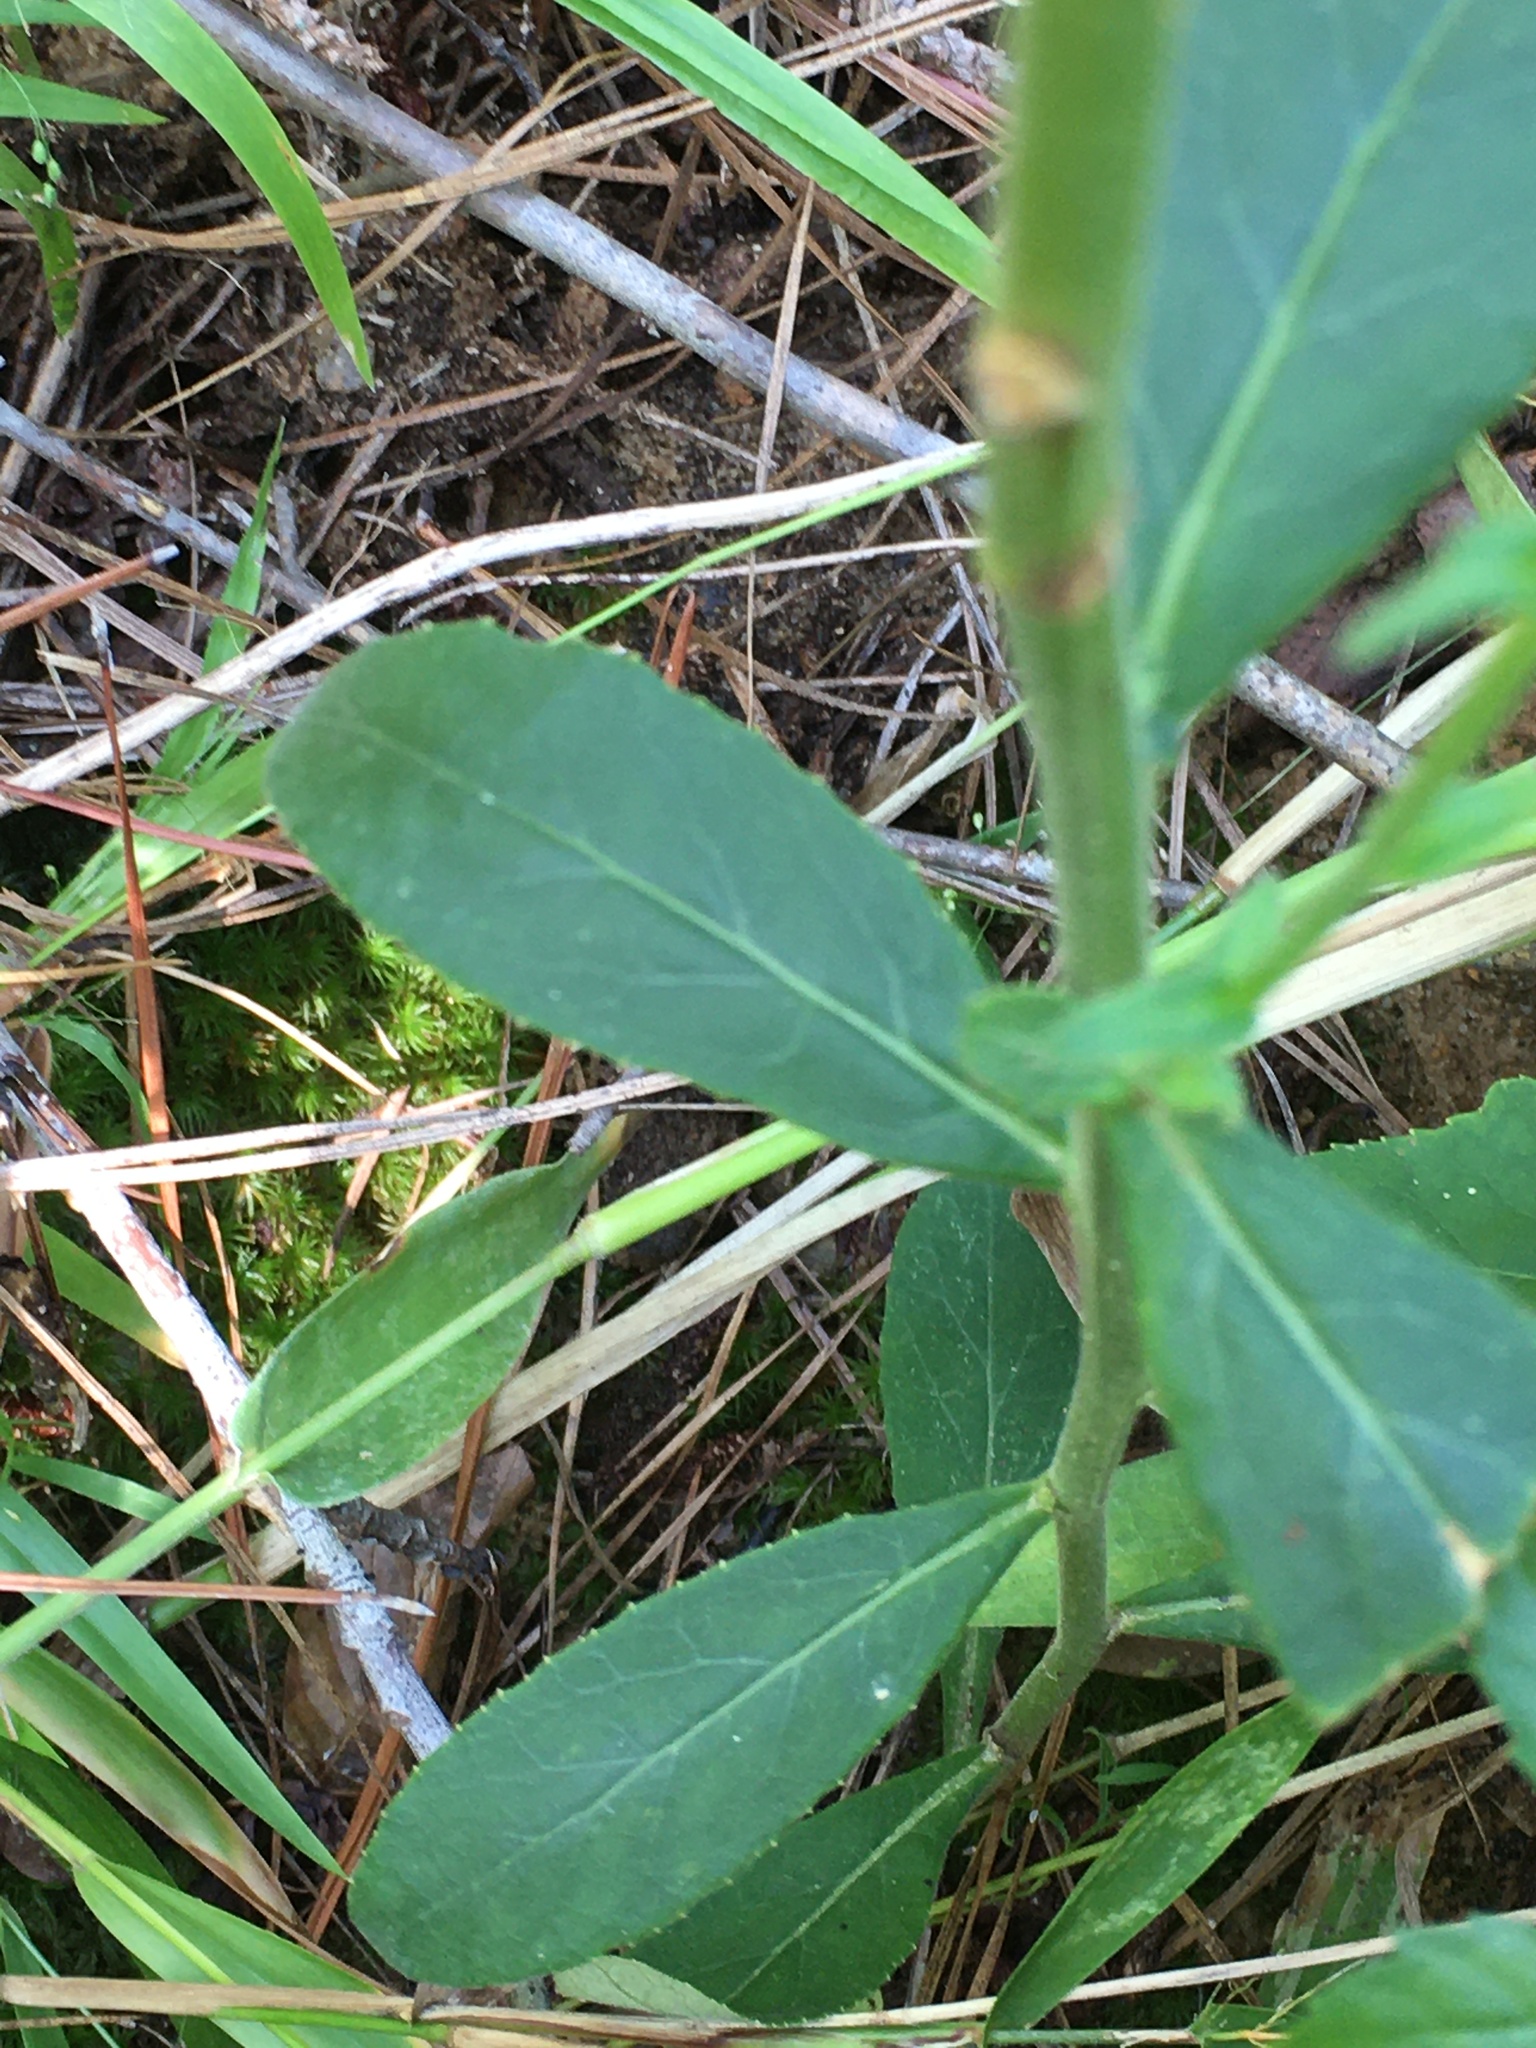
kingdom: Plantae
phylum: Tracheophyta
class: Magnoliopsida
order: Asterales
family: Campanulaceae
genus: Lobelia
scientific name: Lobelia puberula
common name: Purple dewdrop
